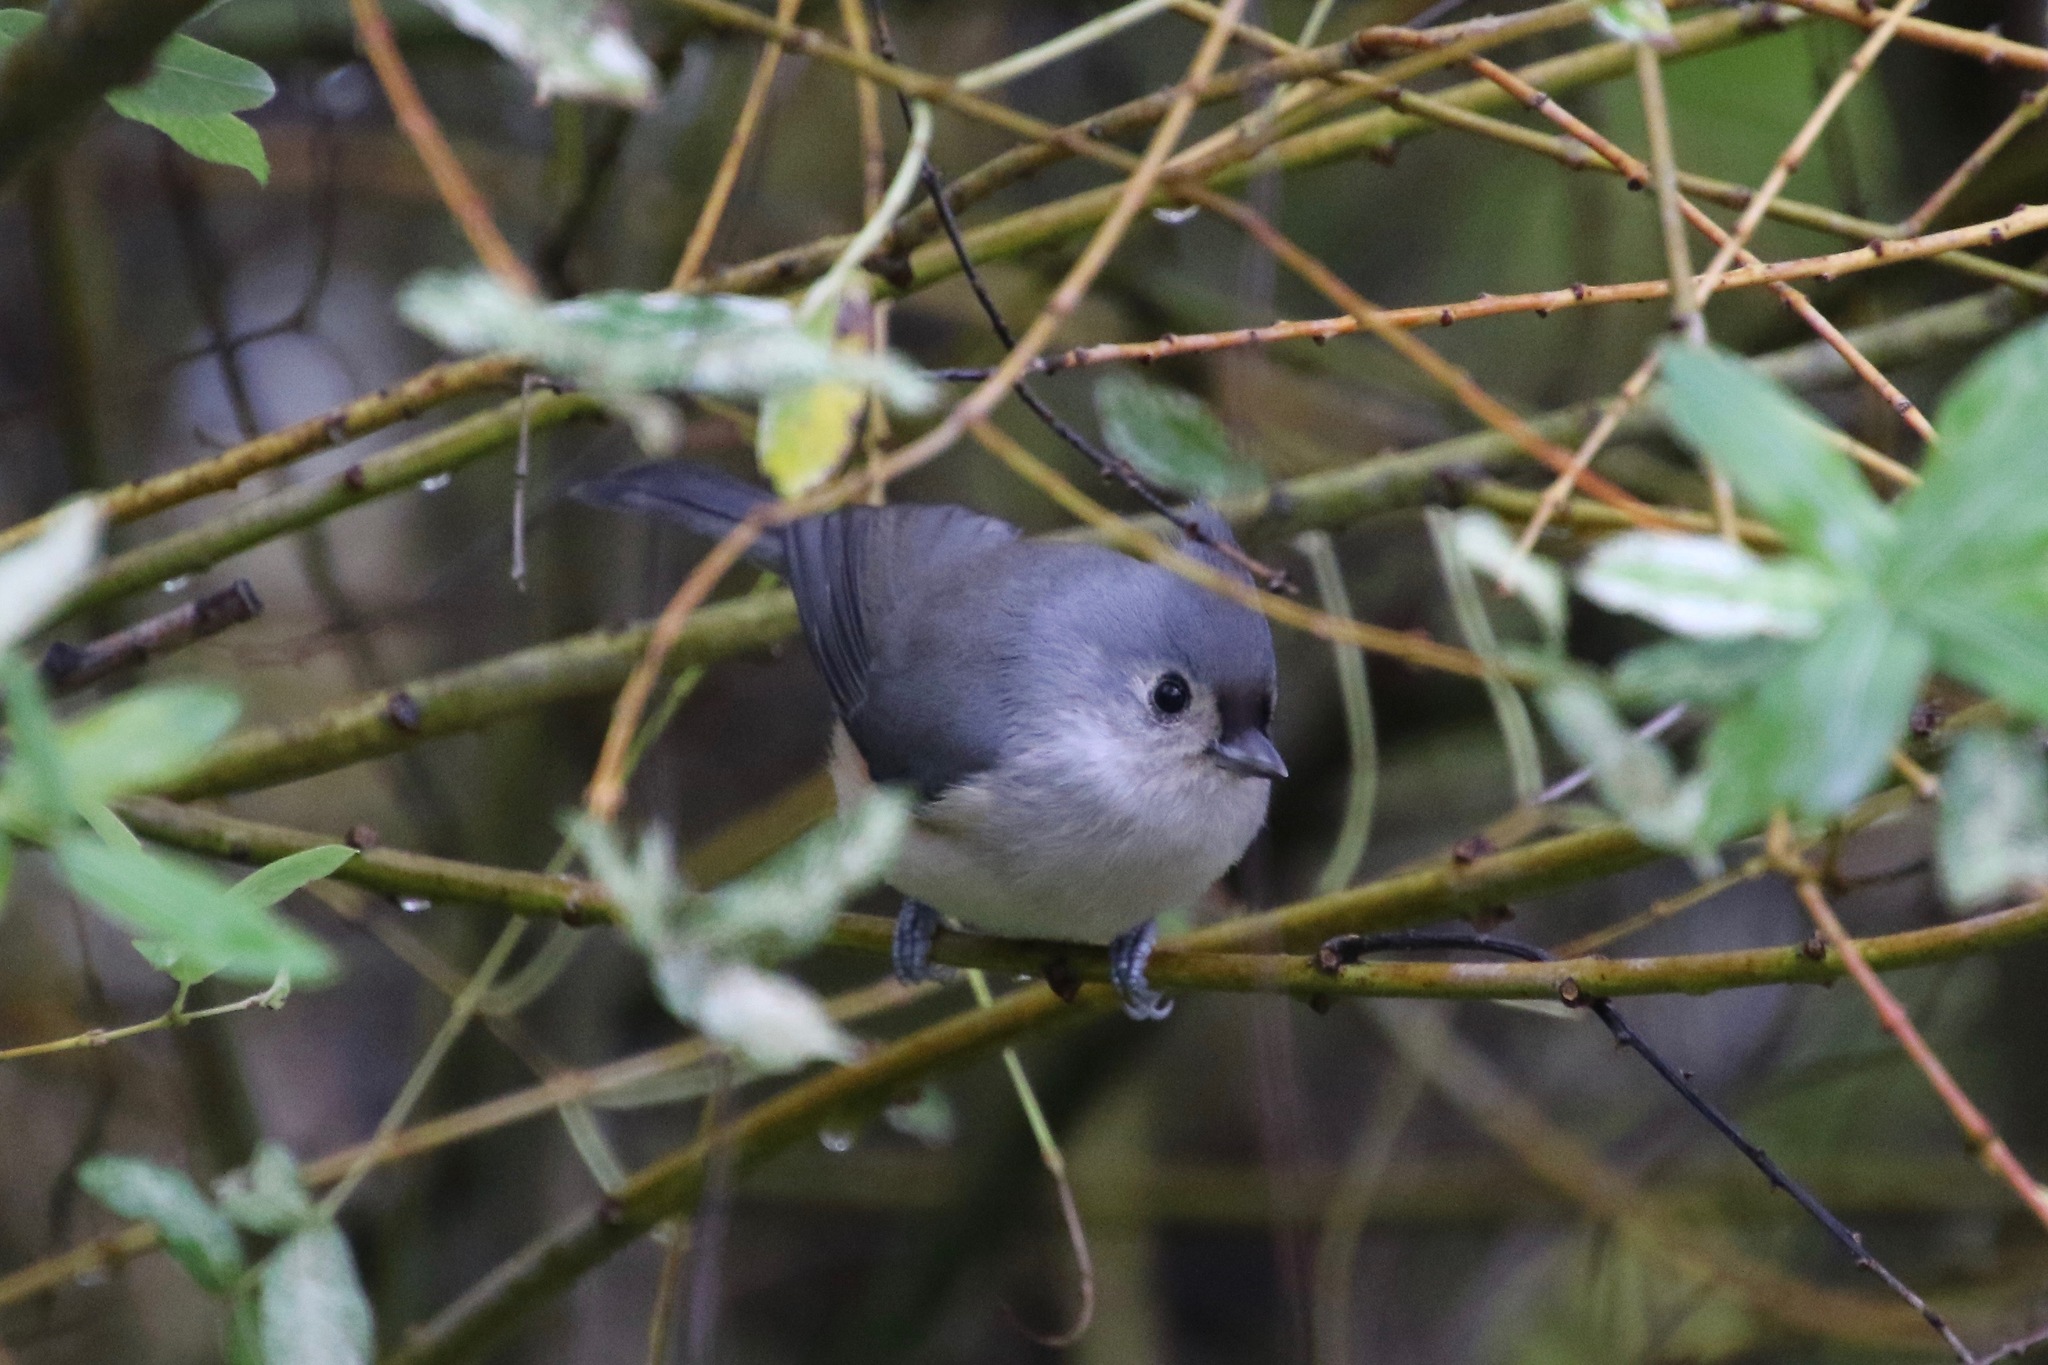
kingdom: Animalia
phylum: Chordata
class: Aves
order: Passeriformes
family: Paridae
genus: Baeolophus
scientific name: Baeolophus bicolor
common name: Tufted titmouse
